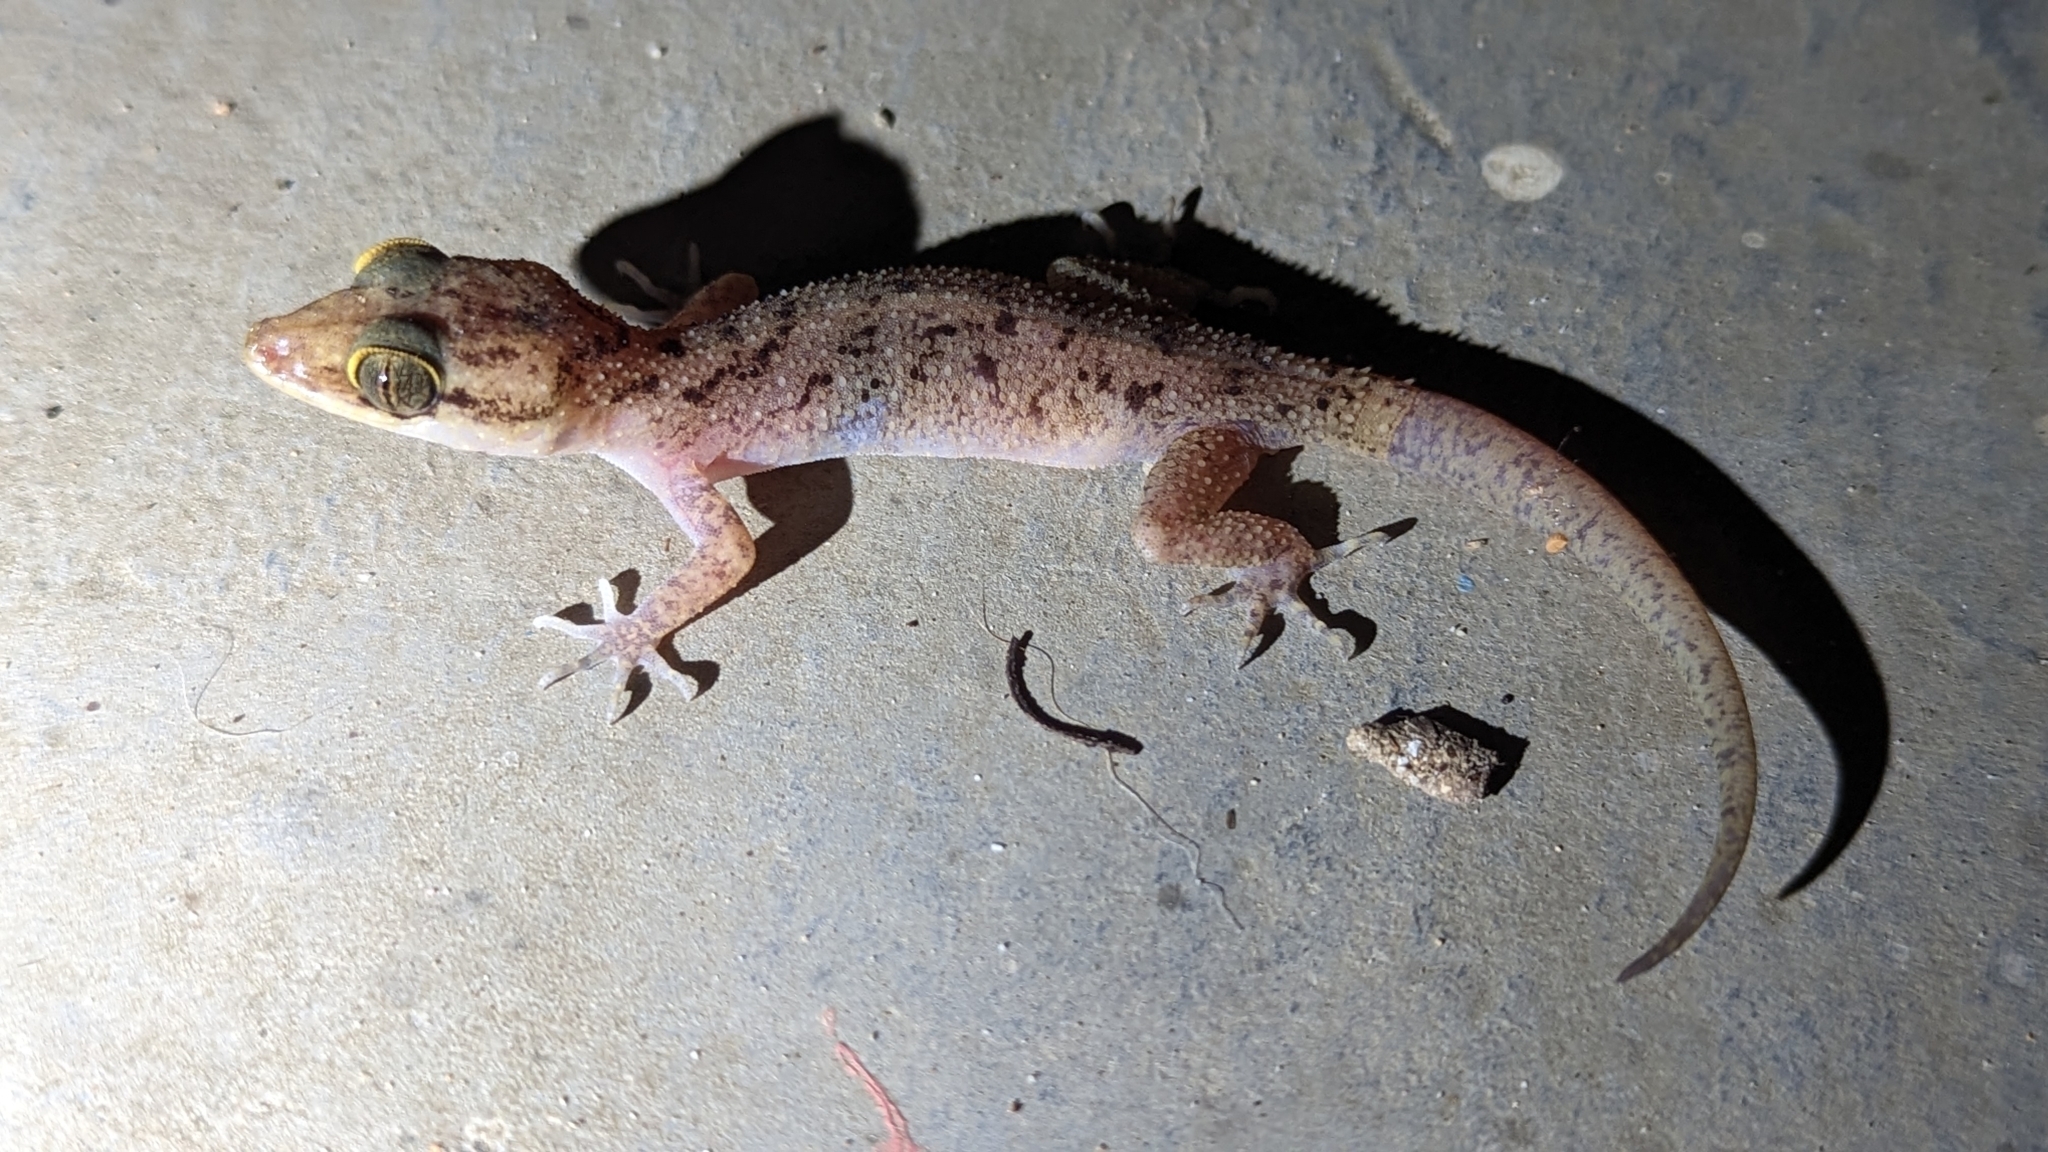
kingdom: Animalia
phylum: Chordata
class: Squamata
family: Gekkonidae
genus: Cyrtodactylus
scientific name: Cyrtodactylus rubidus
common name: Red bow-fingered gecko
